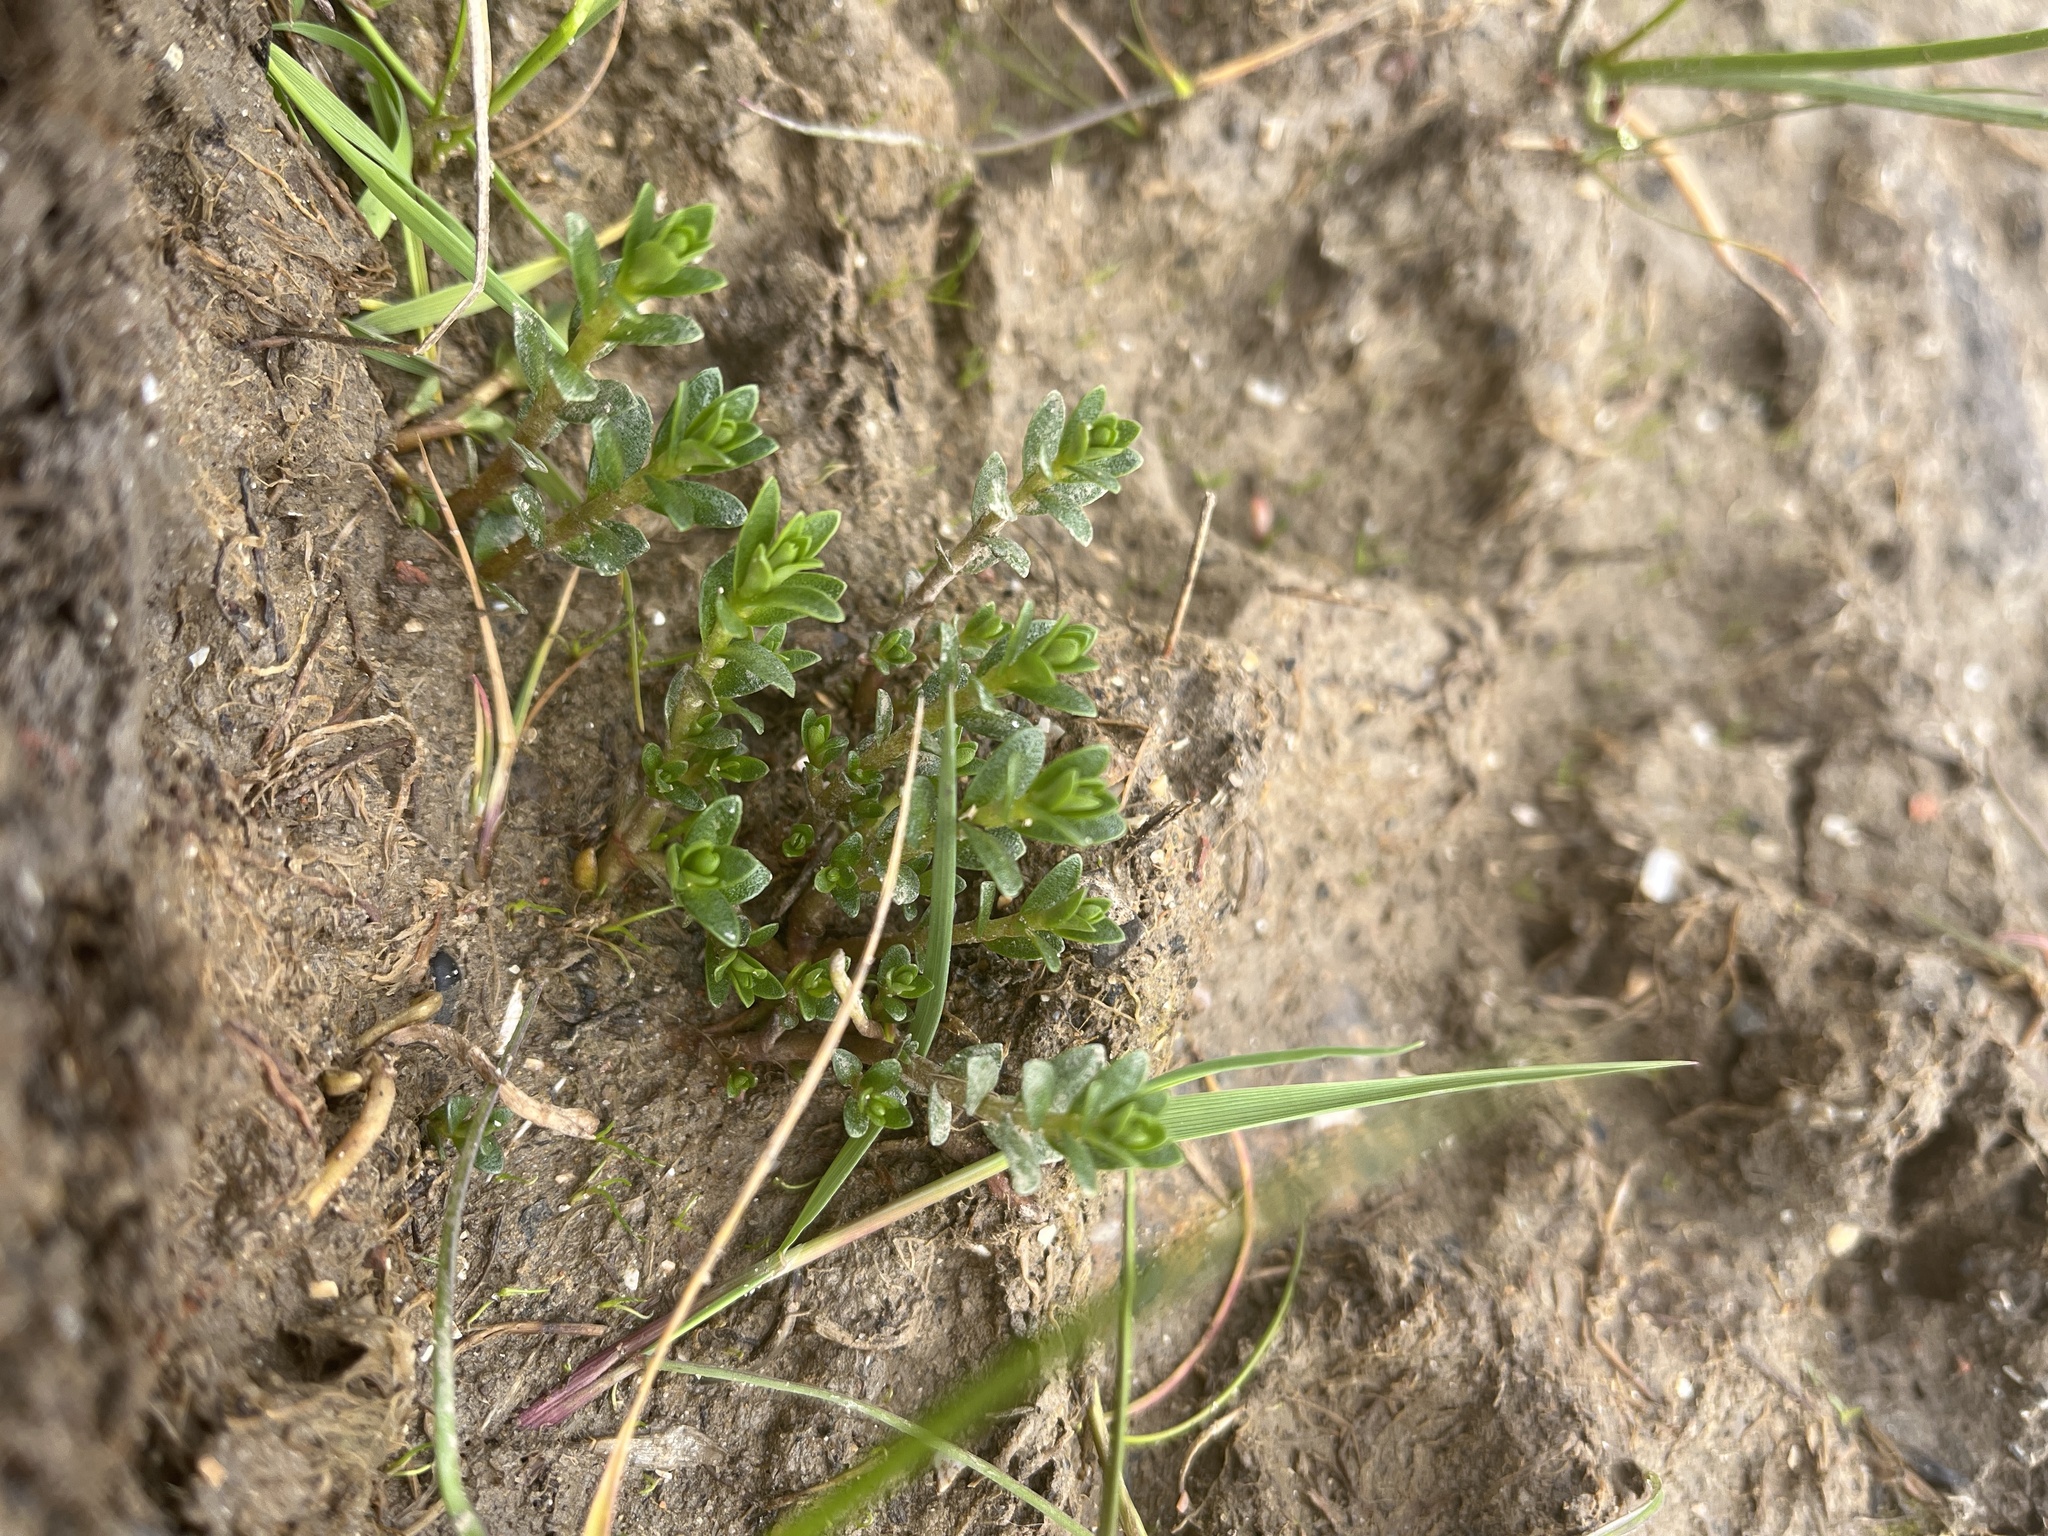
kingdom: Plantae
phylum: Tracheophyta
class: Magnoliopsida
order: Ericales
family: Primulaceae
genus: Lysimachia
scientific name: Lysimachia maritima
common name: Sea milkwort
